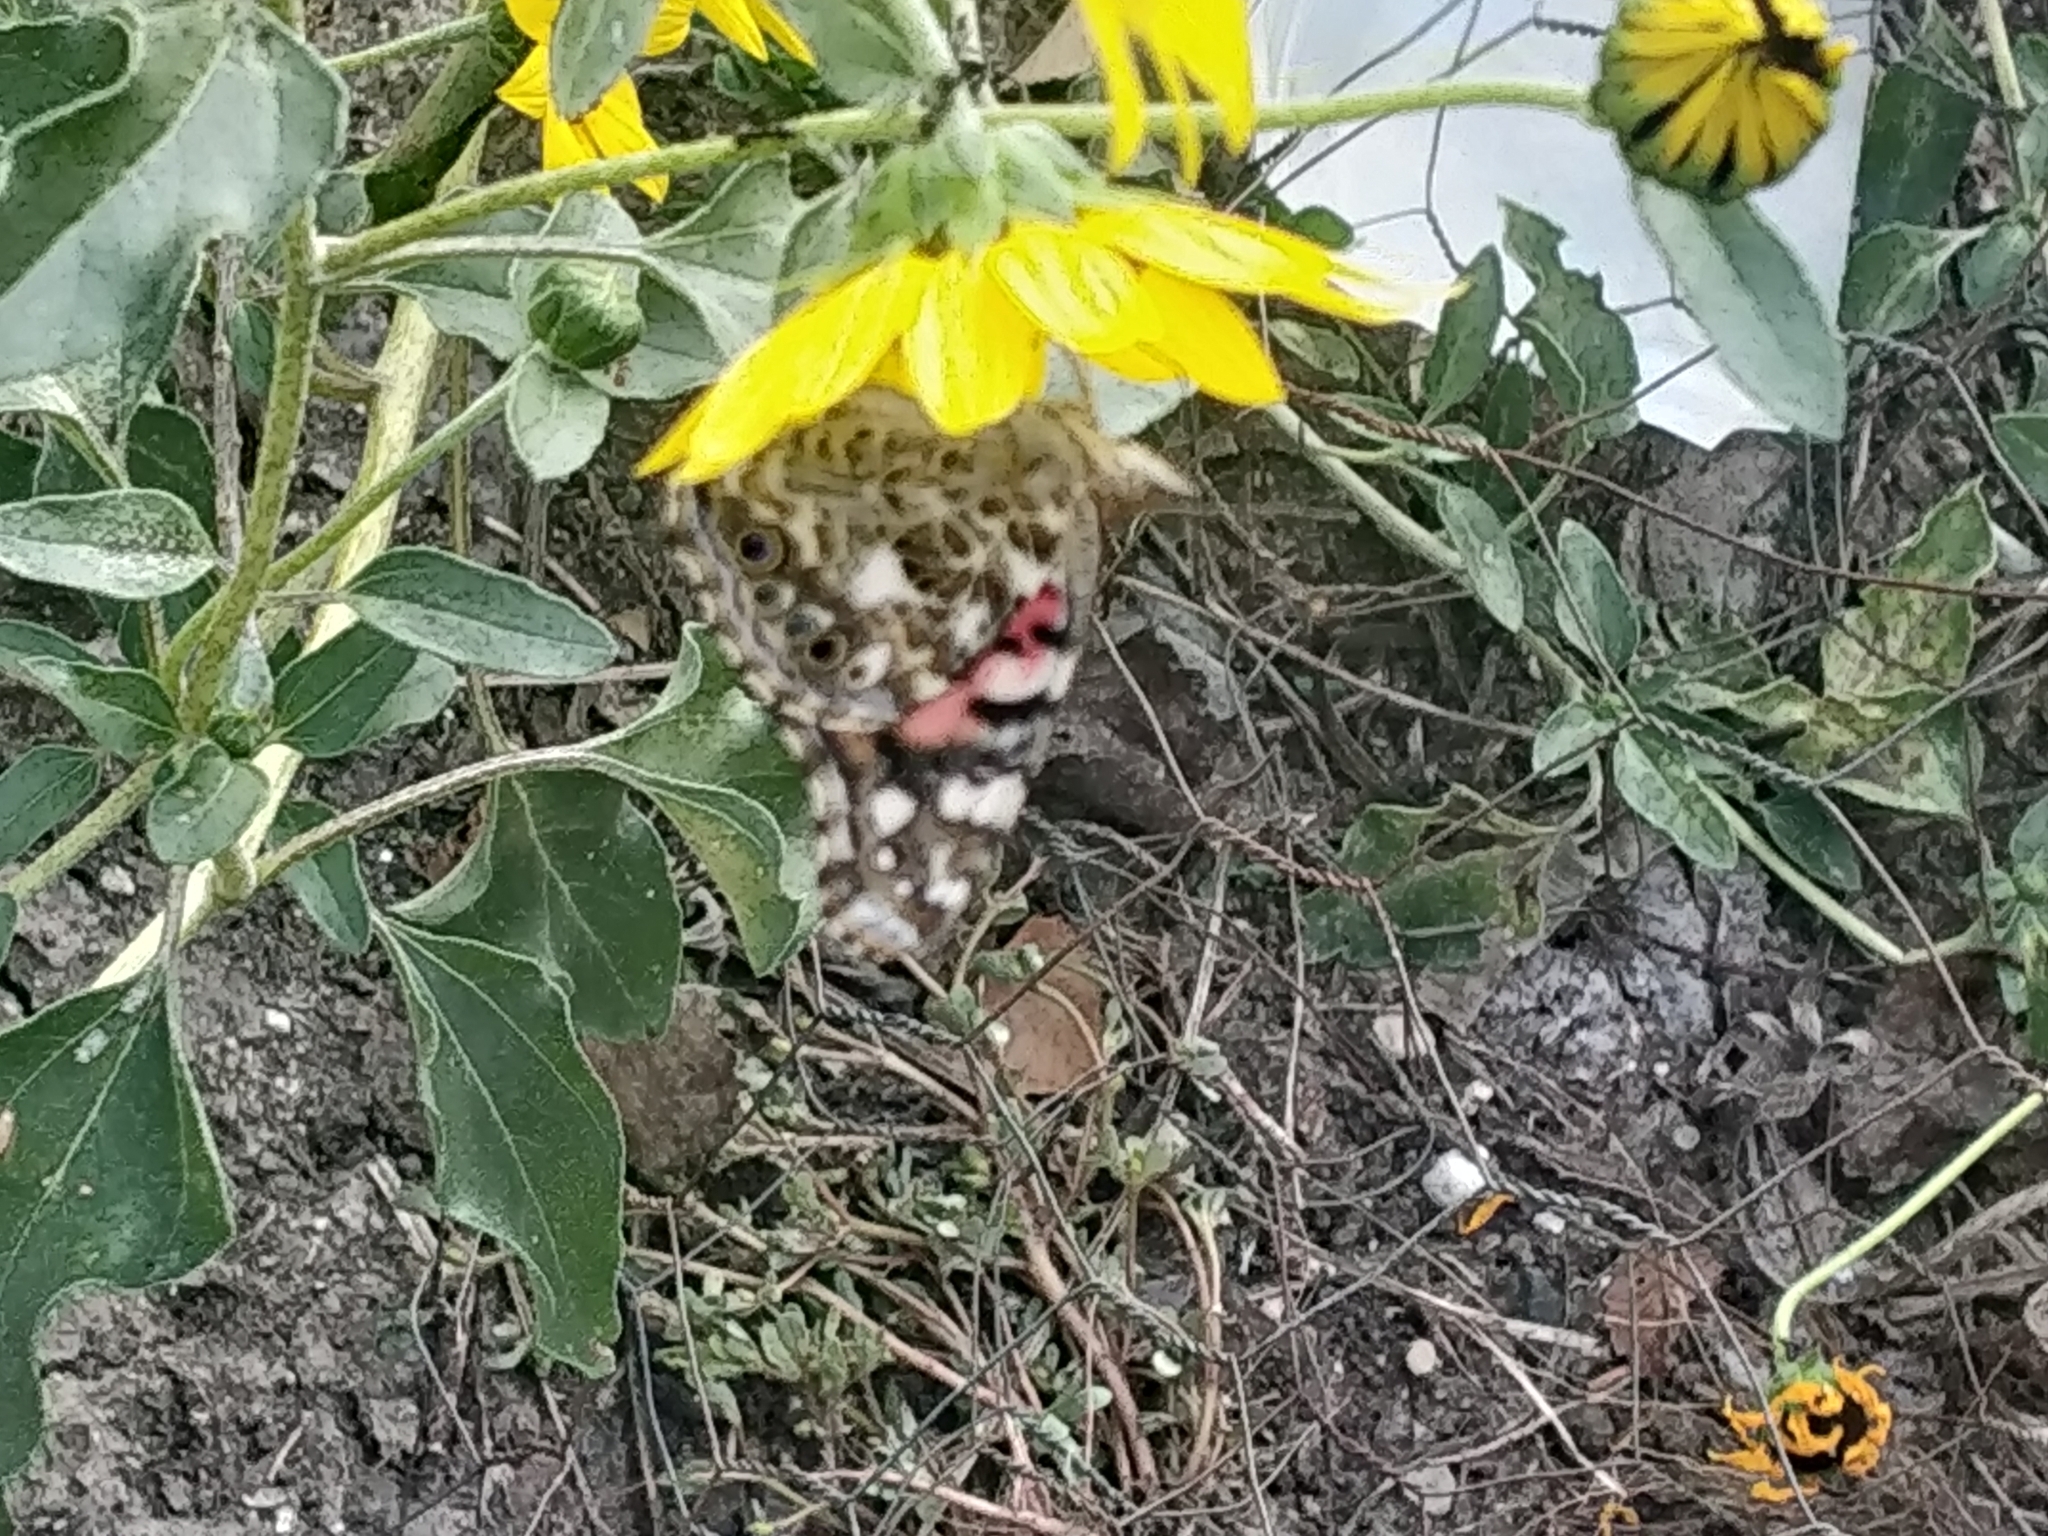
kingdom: Animalia
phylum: Arthropoda
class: Insecta
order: Lepidoptera
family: Nymphalidae
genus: Vanessa
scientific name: Vanessa cardui
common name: Painted lady
